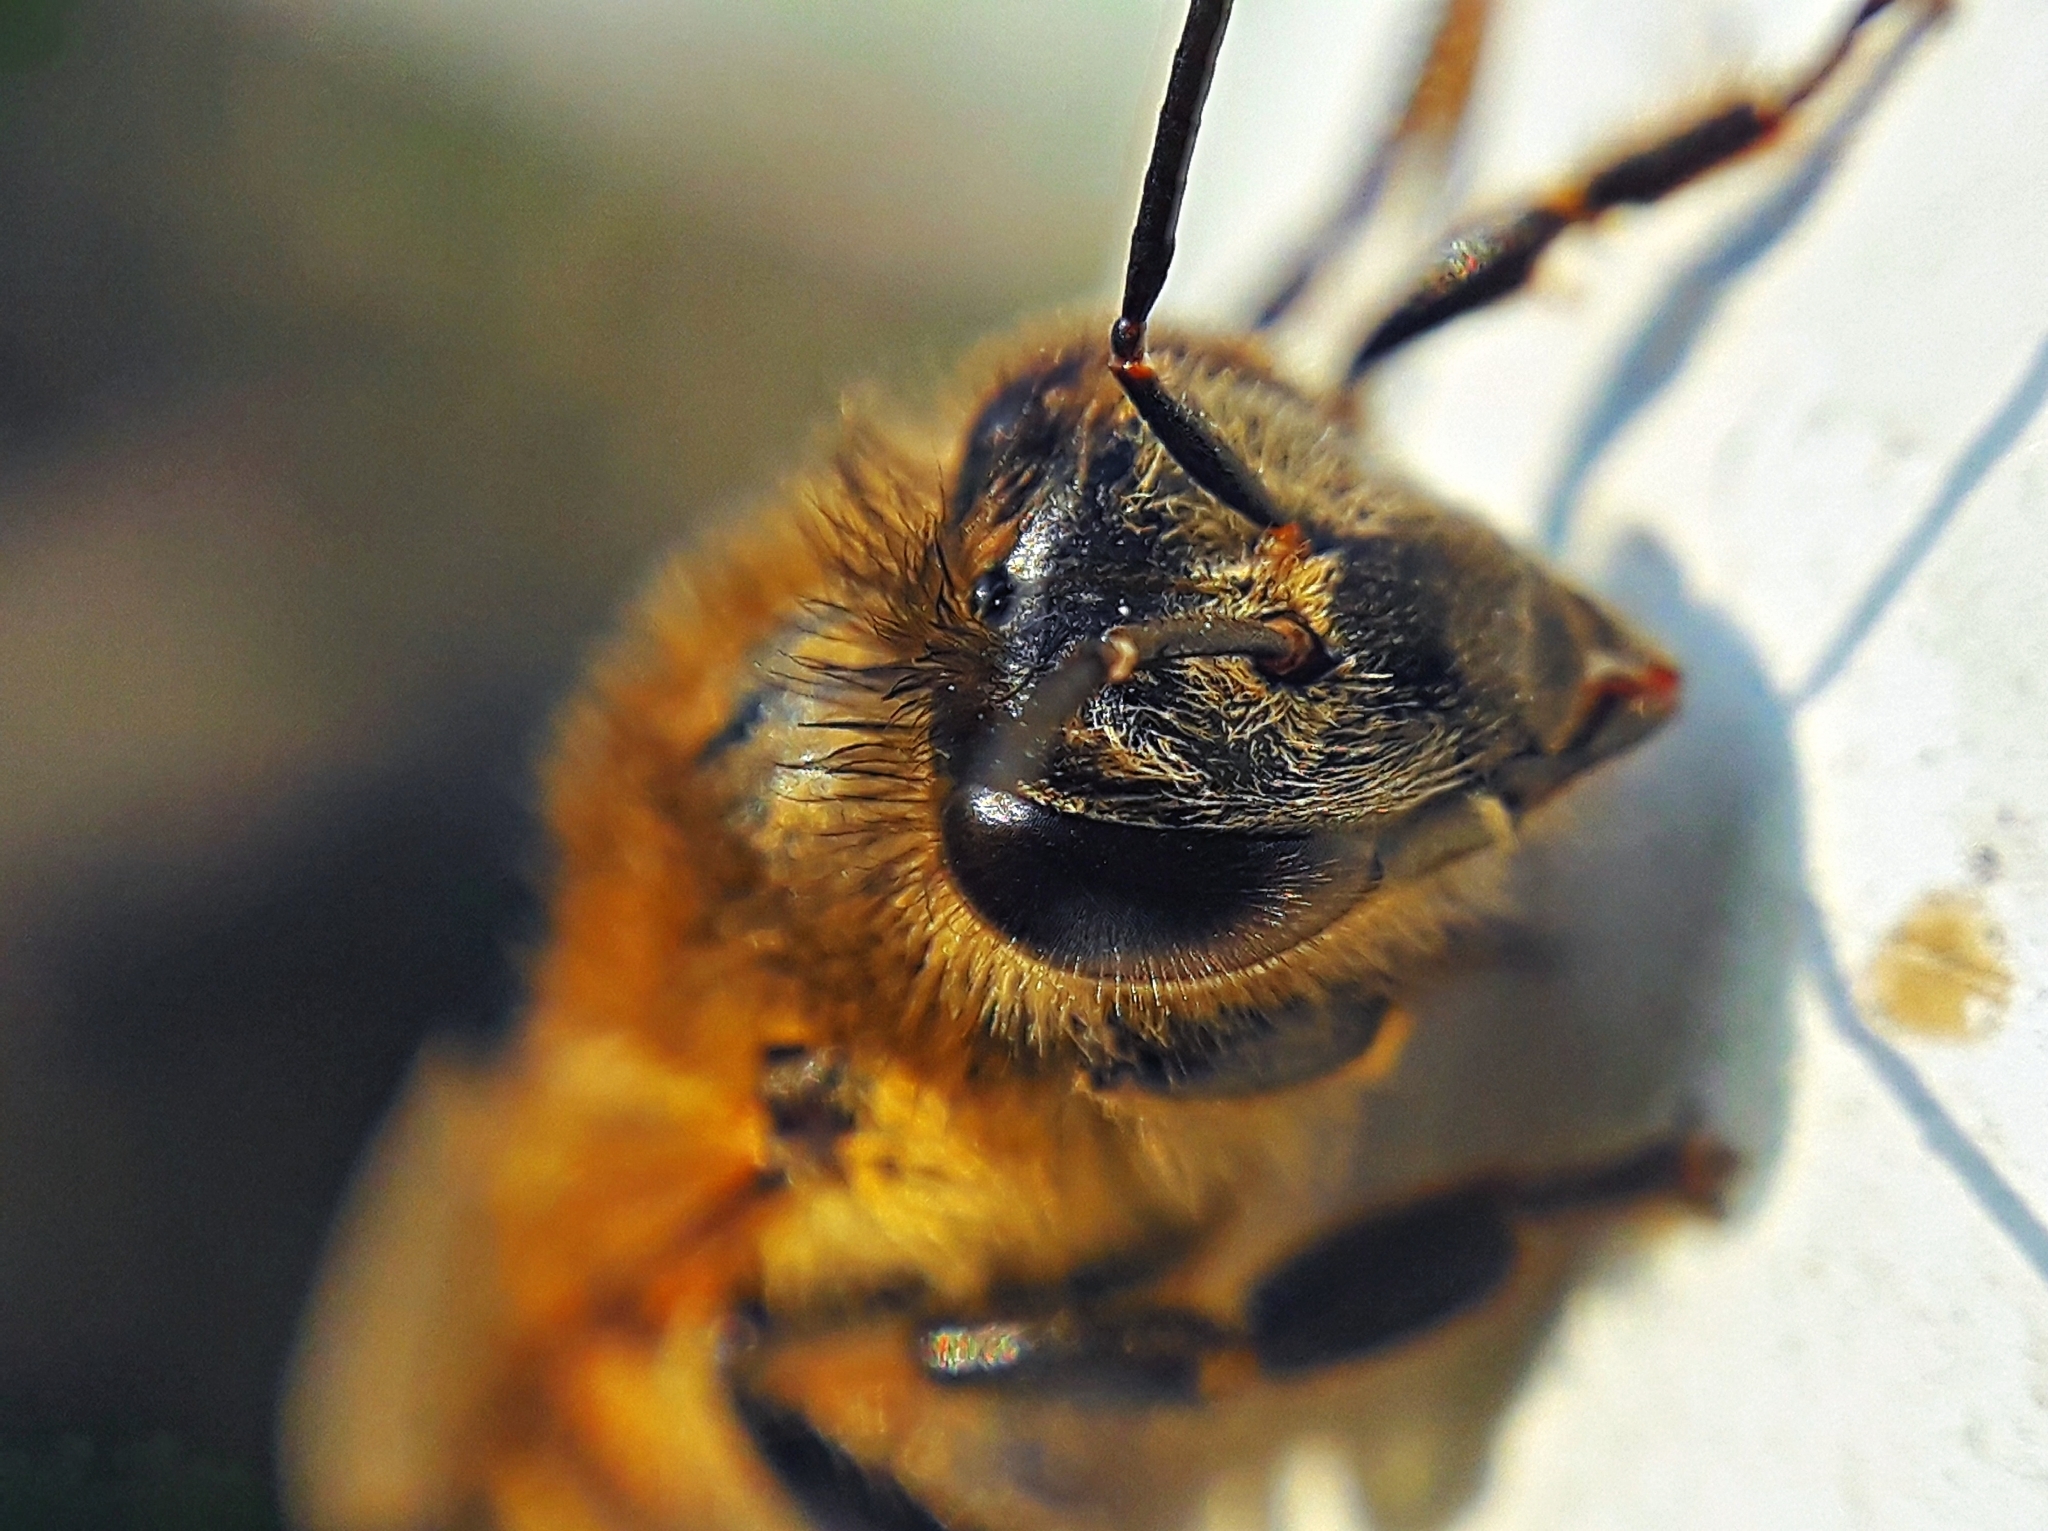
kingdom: Animalia
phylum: Arthropoda
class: Insecta
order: Hymenoptera
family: Apidae
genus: Apis
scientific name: Apis mellifera
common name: Honey bee
